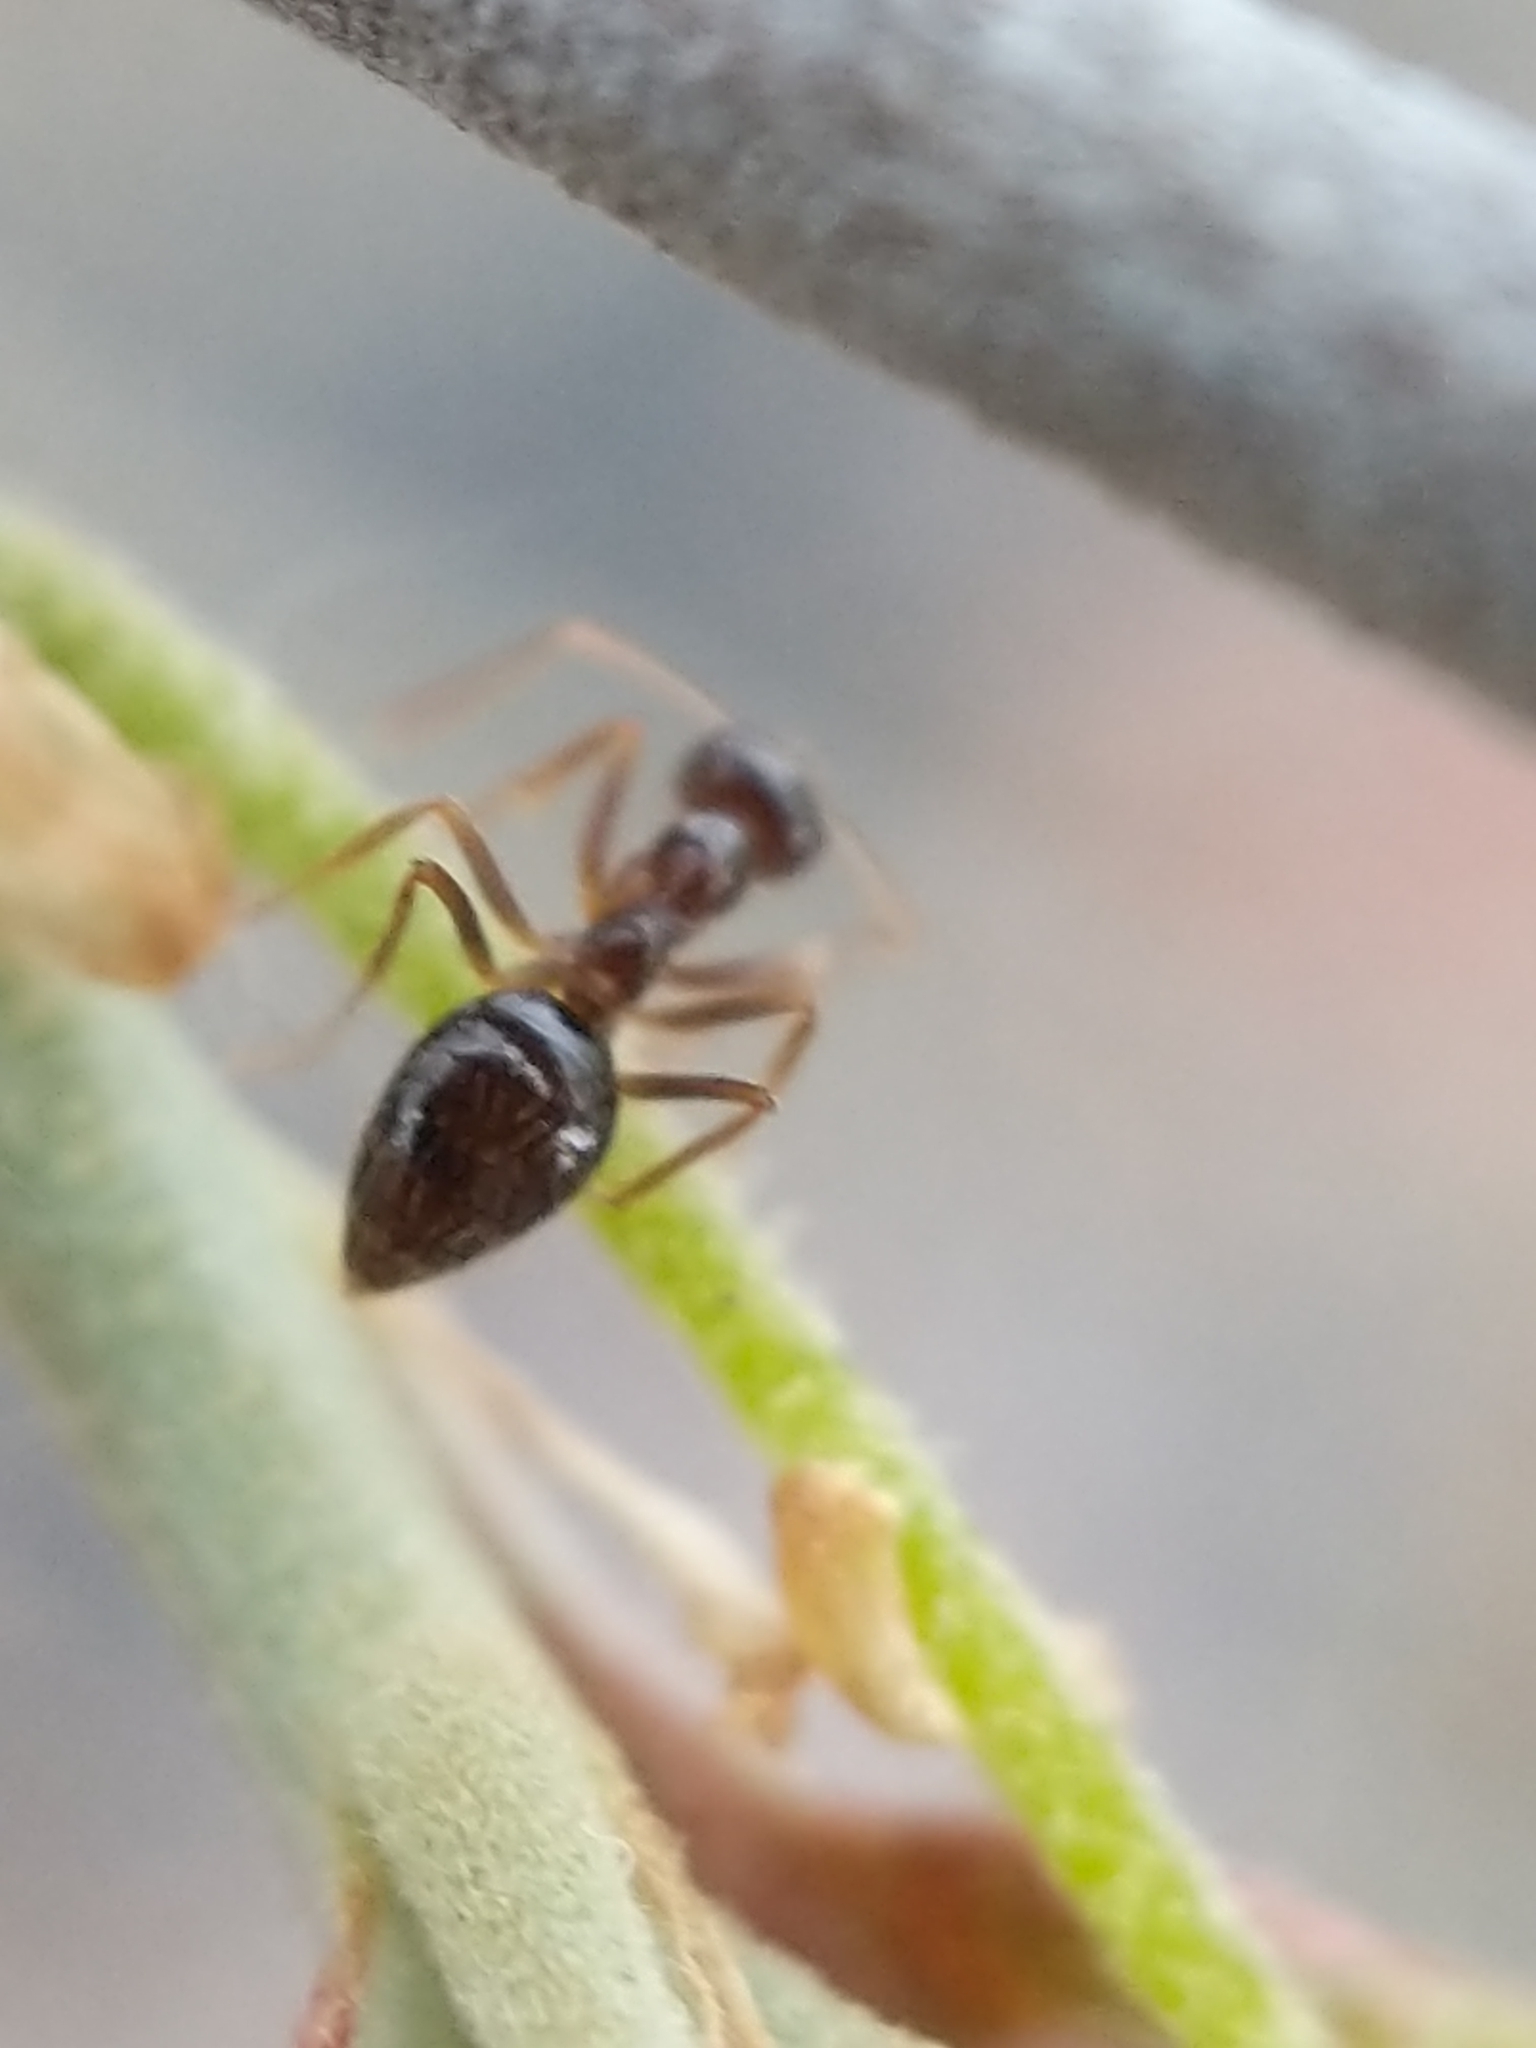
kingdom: Animalia
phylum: Arthropoda
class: Insecta
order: Hymenoptera
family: Formicidae
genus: Prenolepis
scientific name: Prenolepis imparis
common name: Small honey ant
